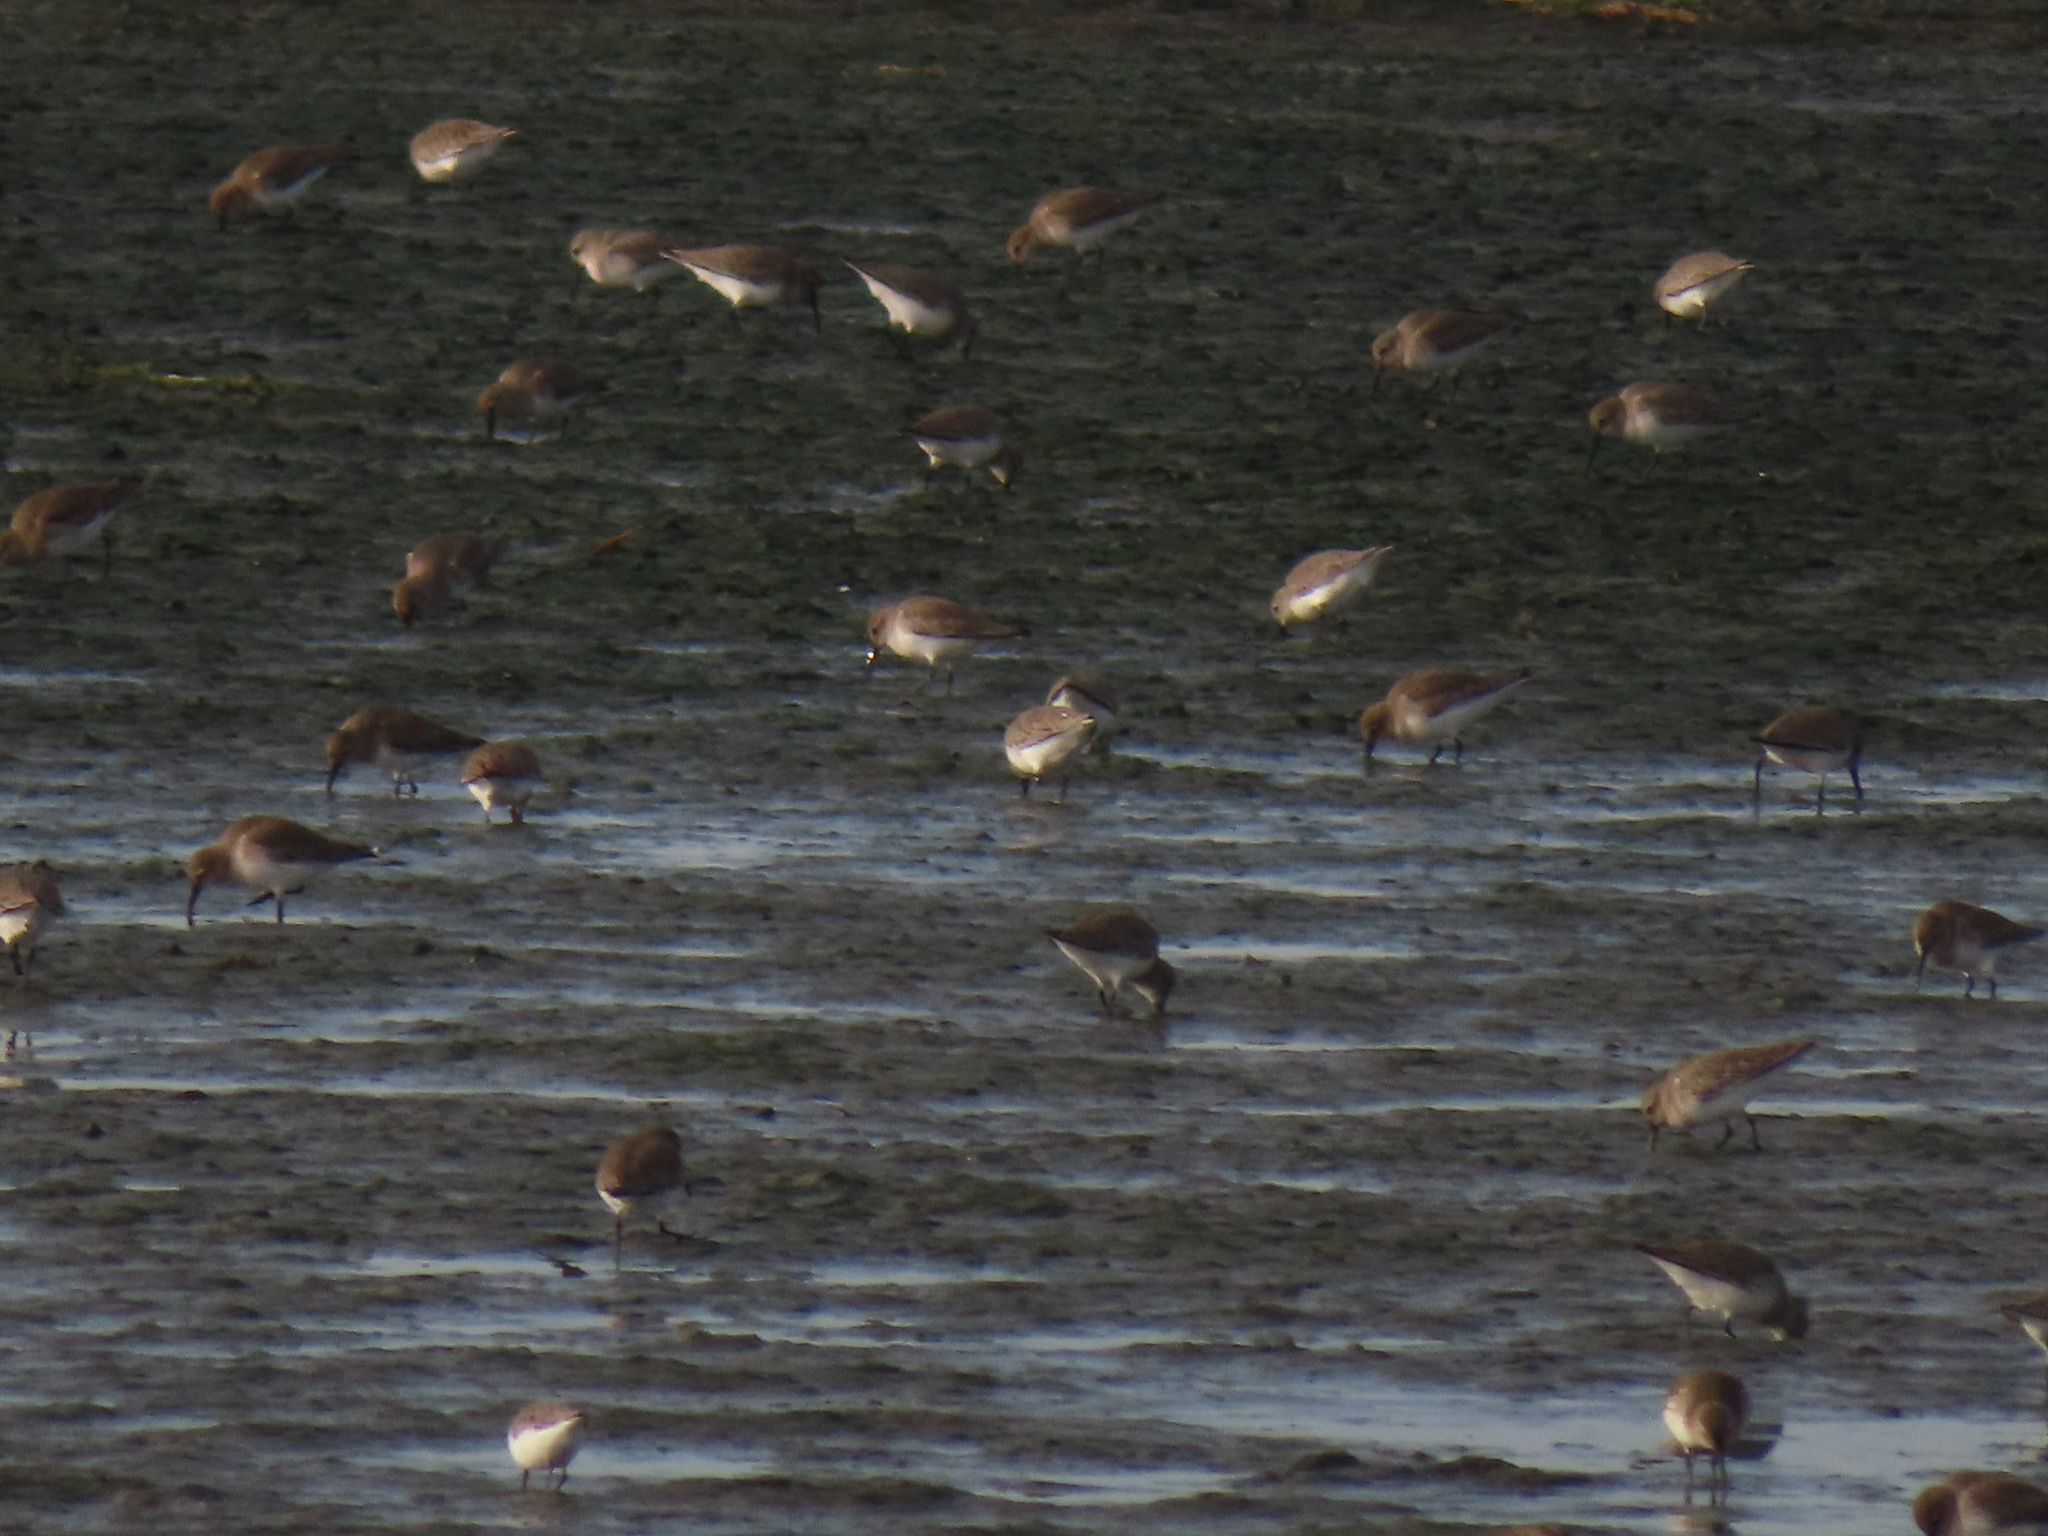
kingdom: Animalia
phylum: Chordata
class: Aves
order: Charadriiformes
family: Scolopacidae
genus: Calidris
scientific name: Calidris alpina
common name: Dunlin
